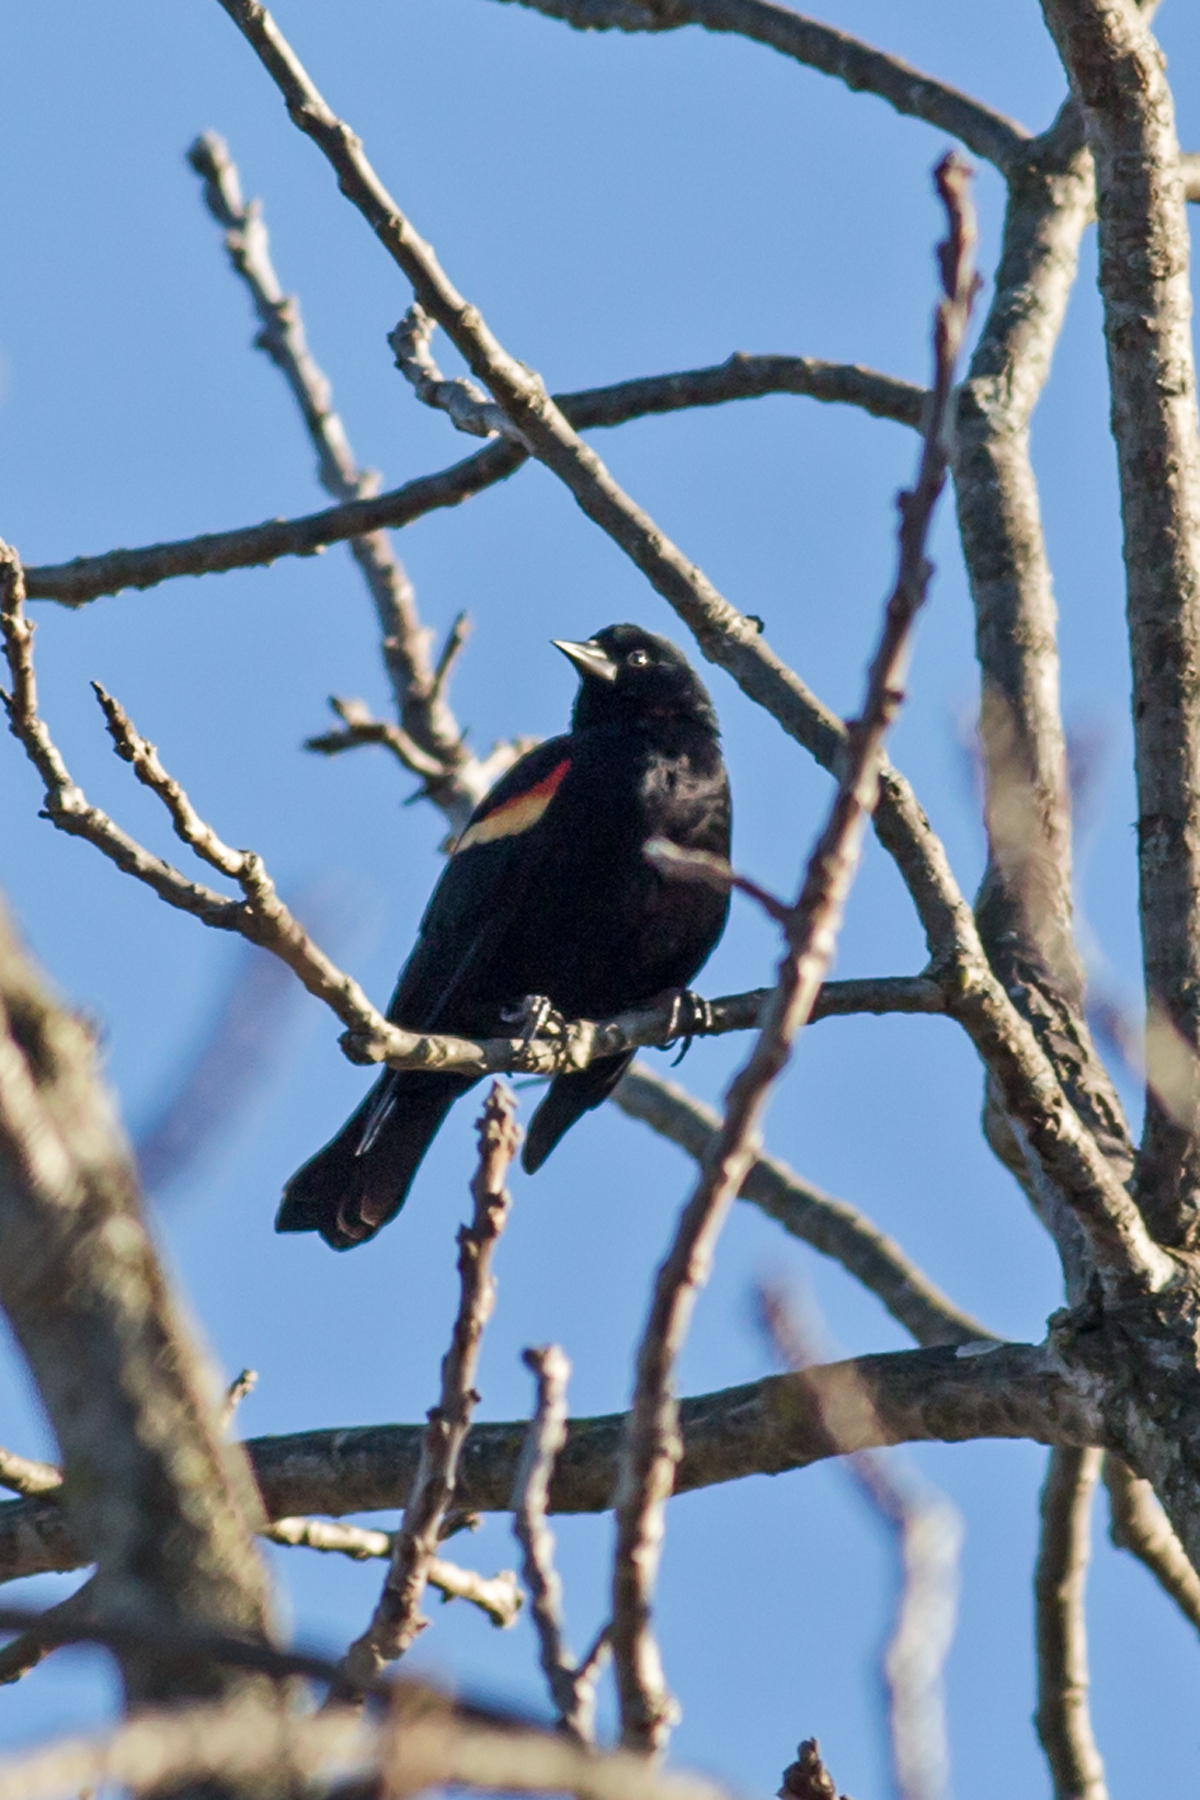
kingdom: Animalia
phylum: Chordata
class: Aves
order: Passeriformes
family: Icteridae
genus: Agelaius
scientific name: Agelaius phoeniceus
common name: Red-winged blackbird
